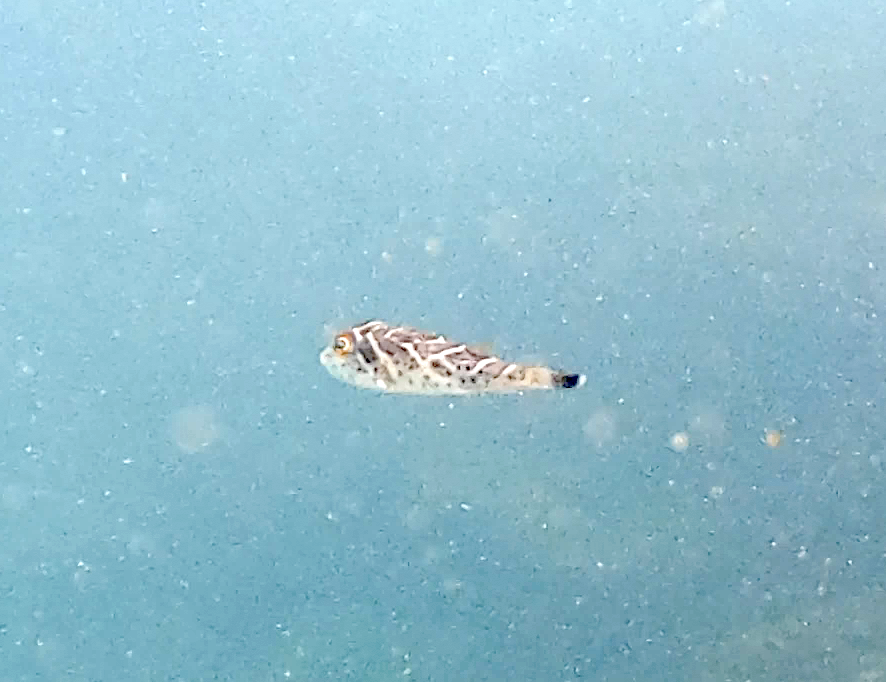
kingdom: Animalia
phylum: Chordata
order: Tetraodontiformes
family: Tetraodontidae
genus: Sphoeroides
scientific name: Sphoeroides annulatus
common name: Bullseye puffer
